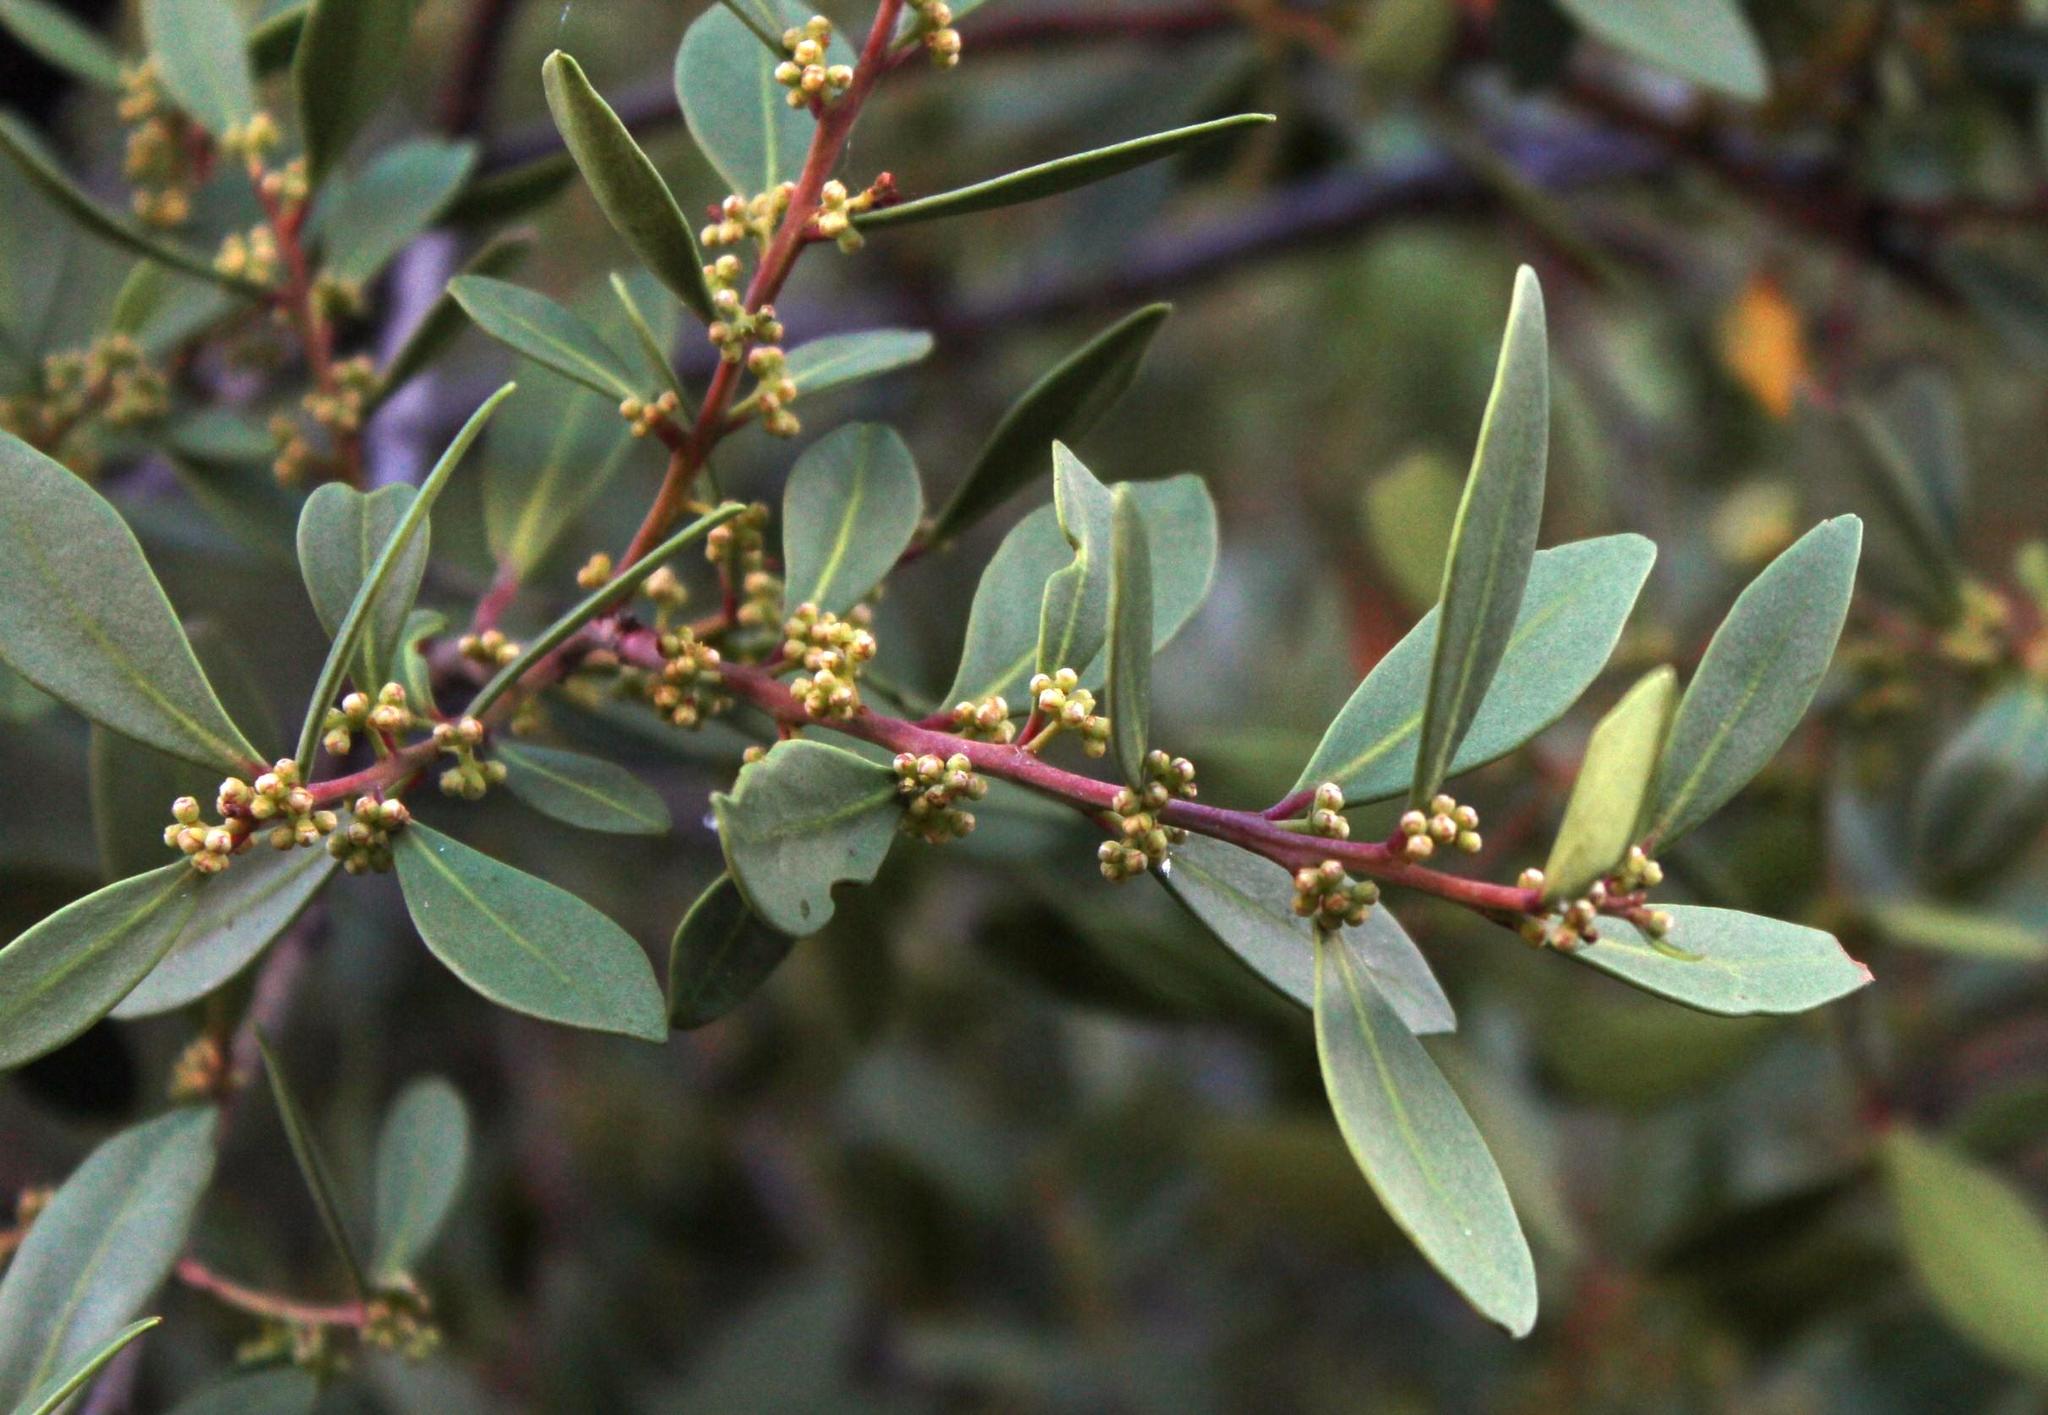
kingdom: Plantae
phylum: Tracheophyta
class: Magnoliopsida
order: Celastrales
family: Celastraceae
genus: Gymnosporia
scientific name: Gymnosporia laurina
